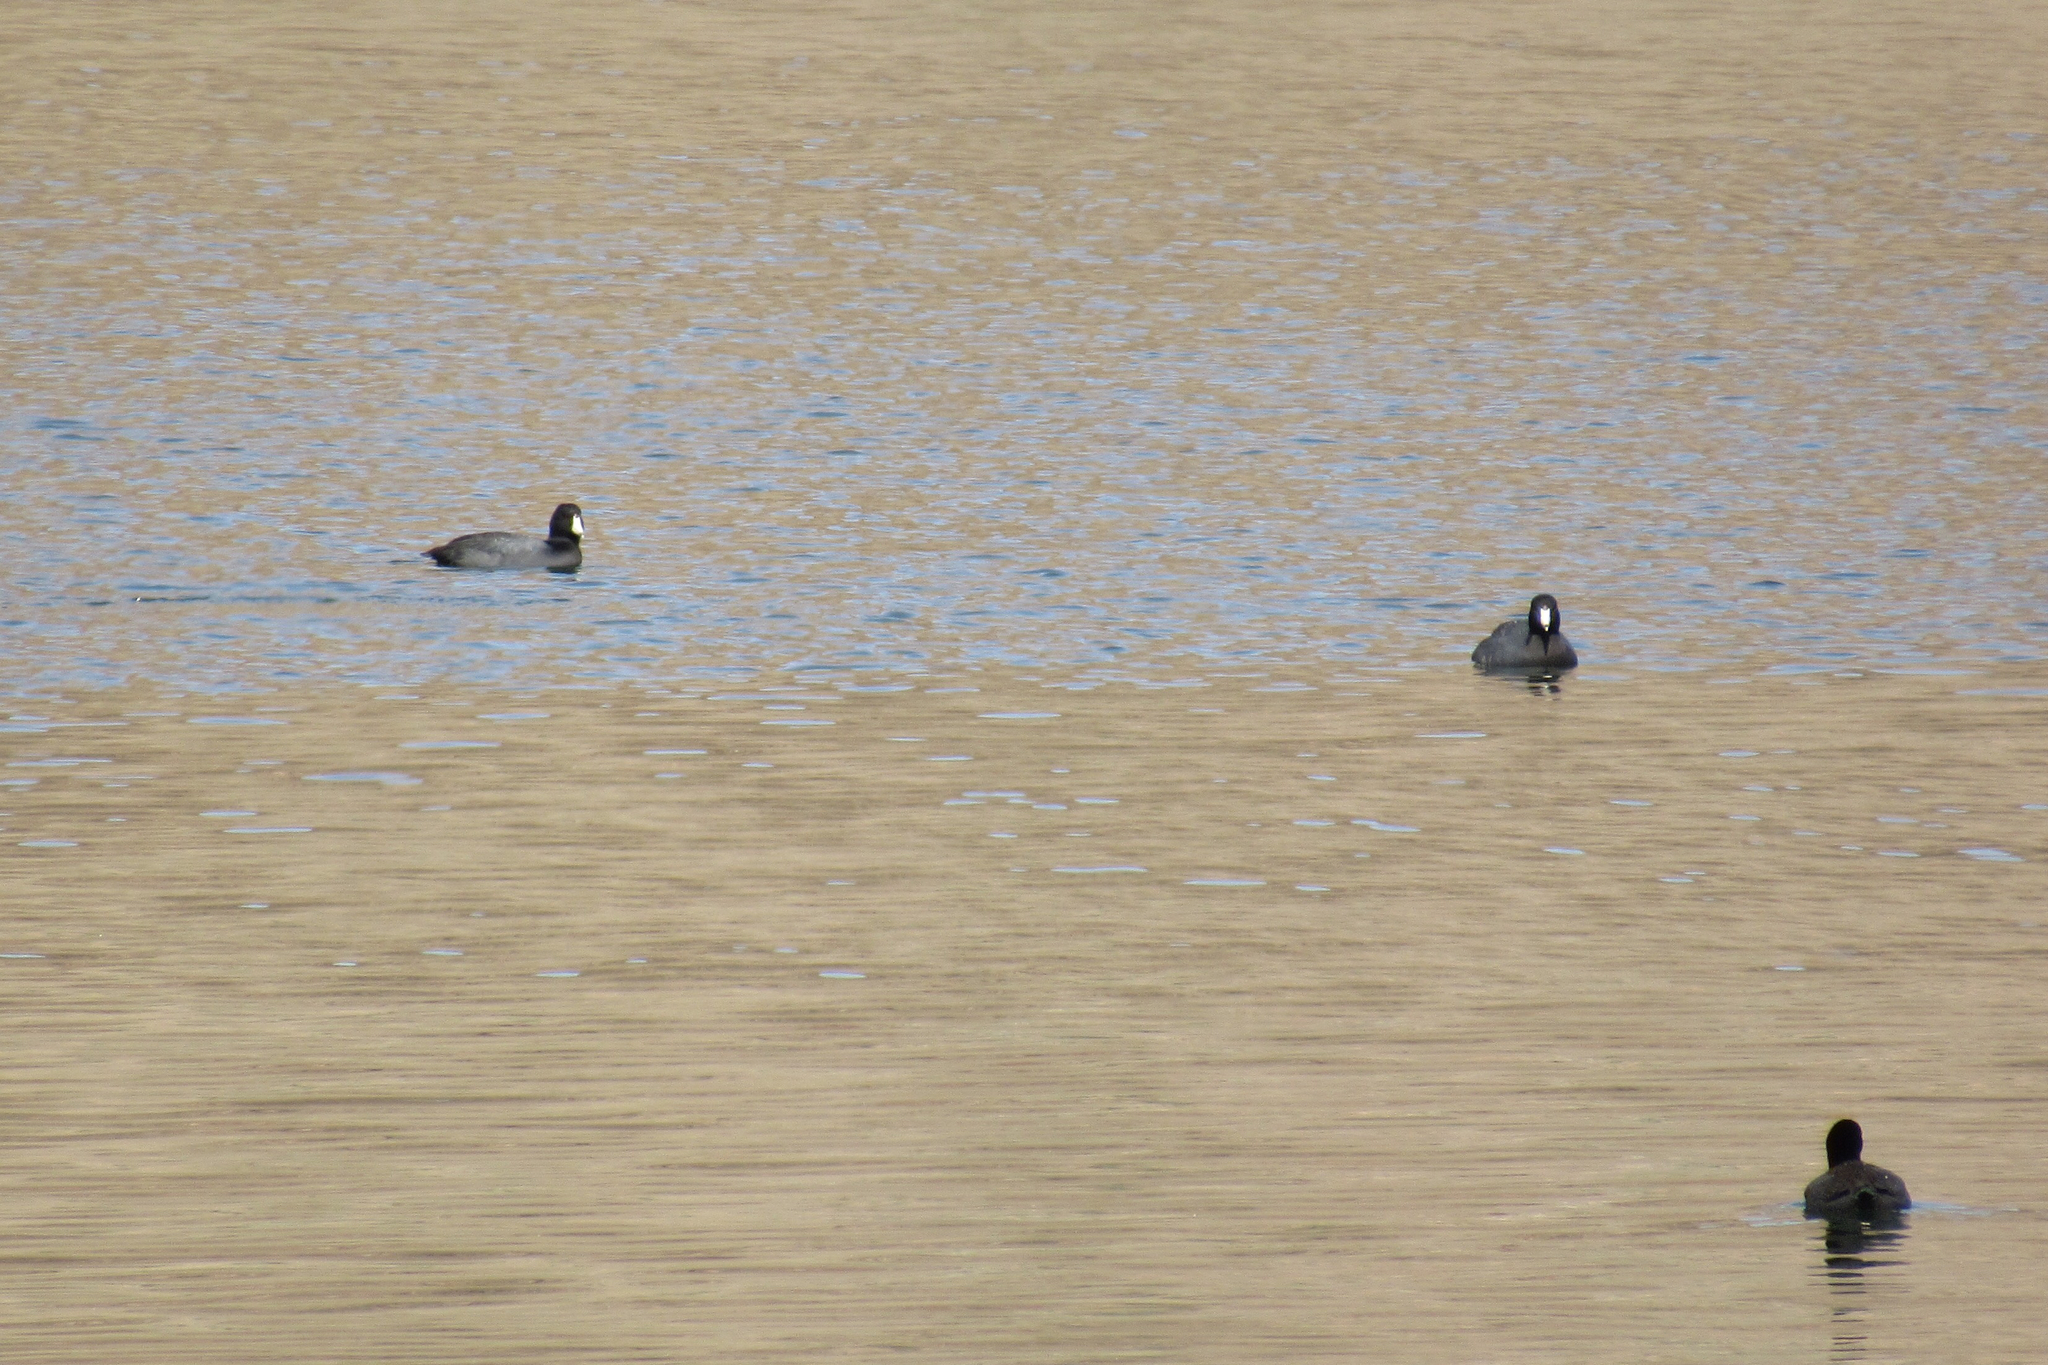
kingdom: Animalia
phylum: Chordata
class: Aves
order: Gruiformes
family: Rallidae
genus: Fulica
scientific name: Fulica americana
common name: American coot
